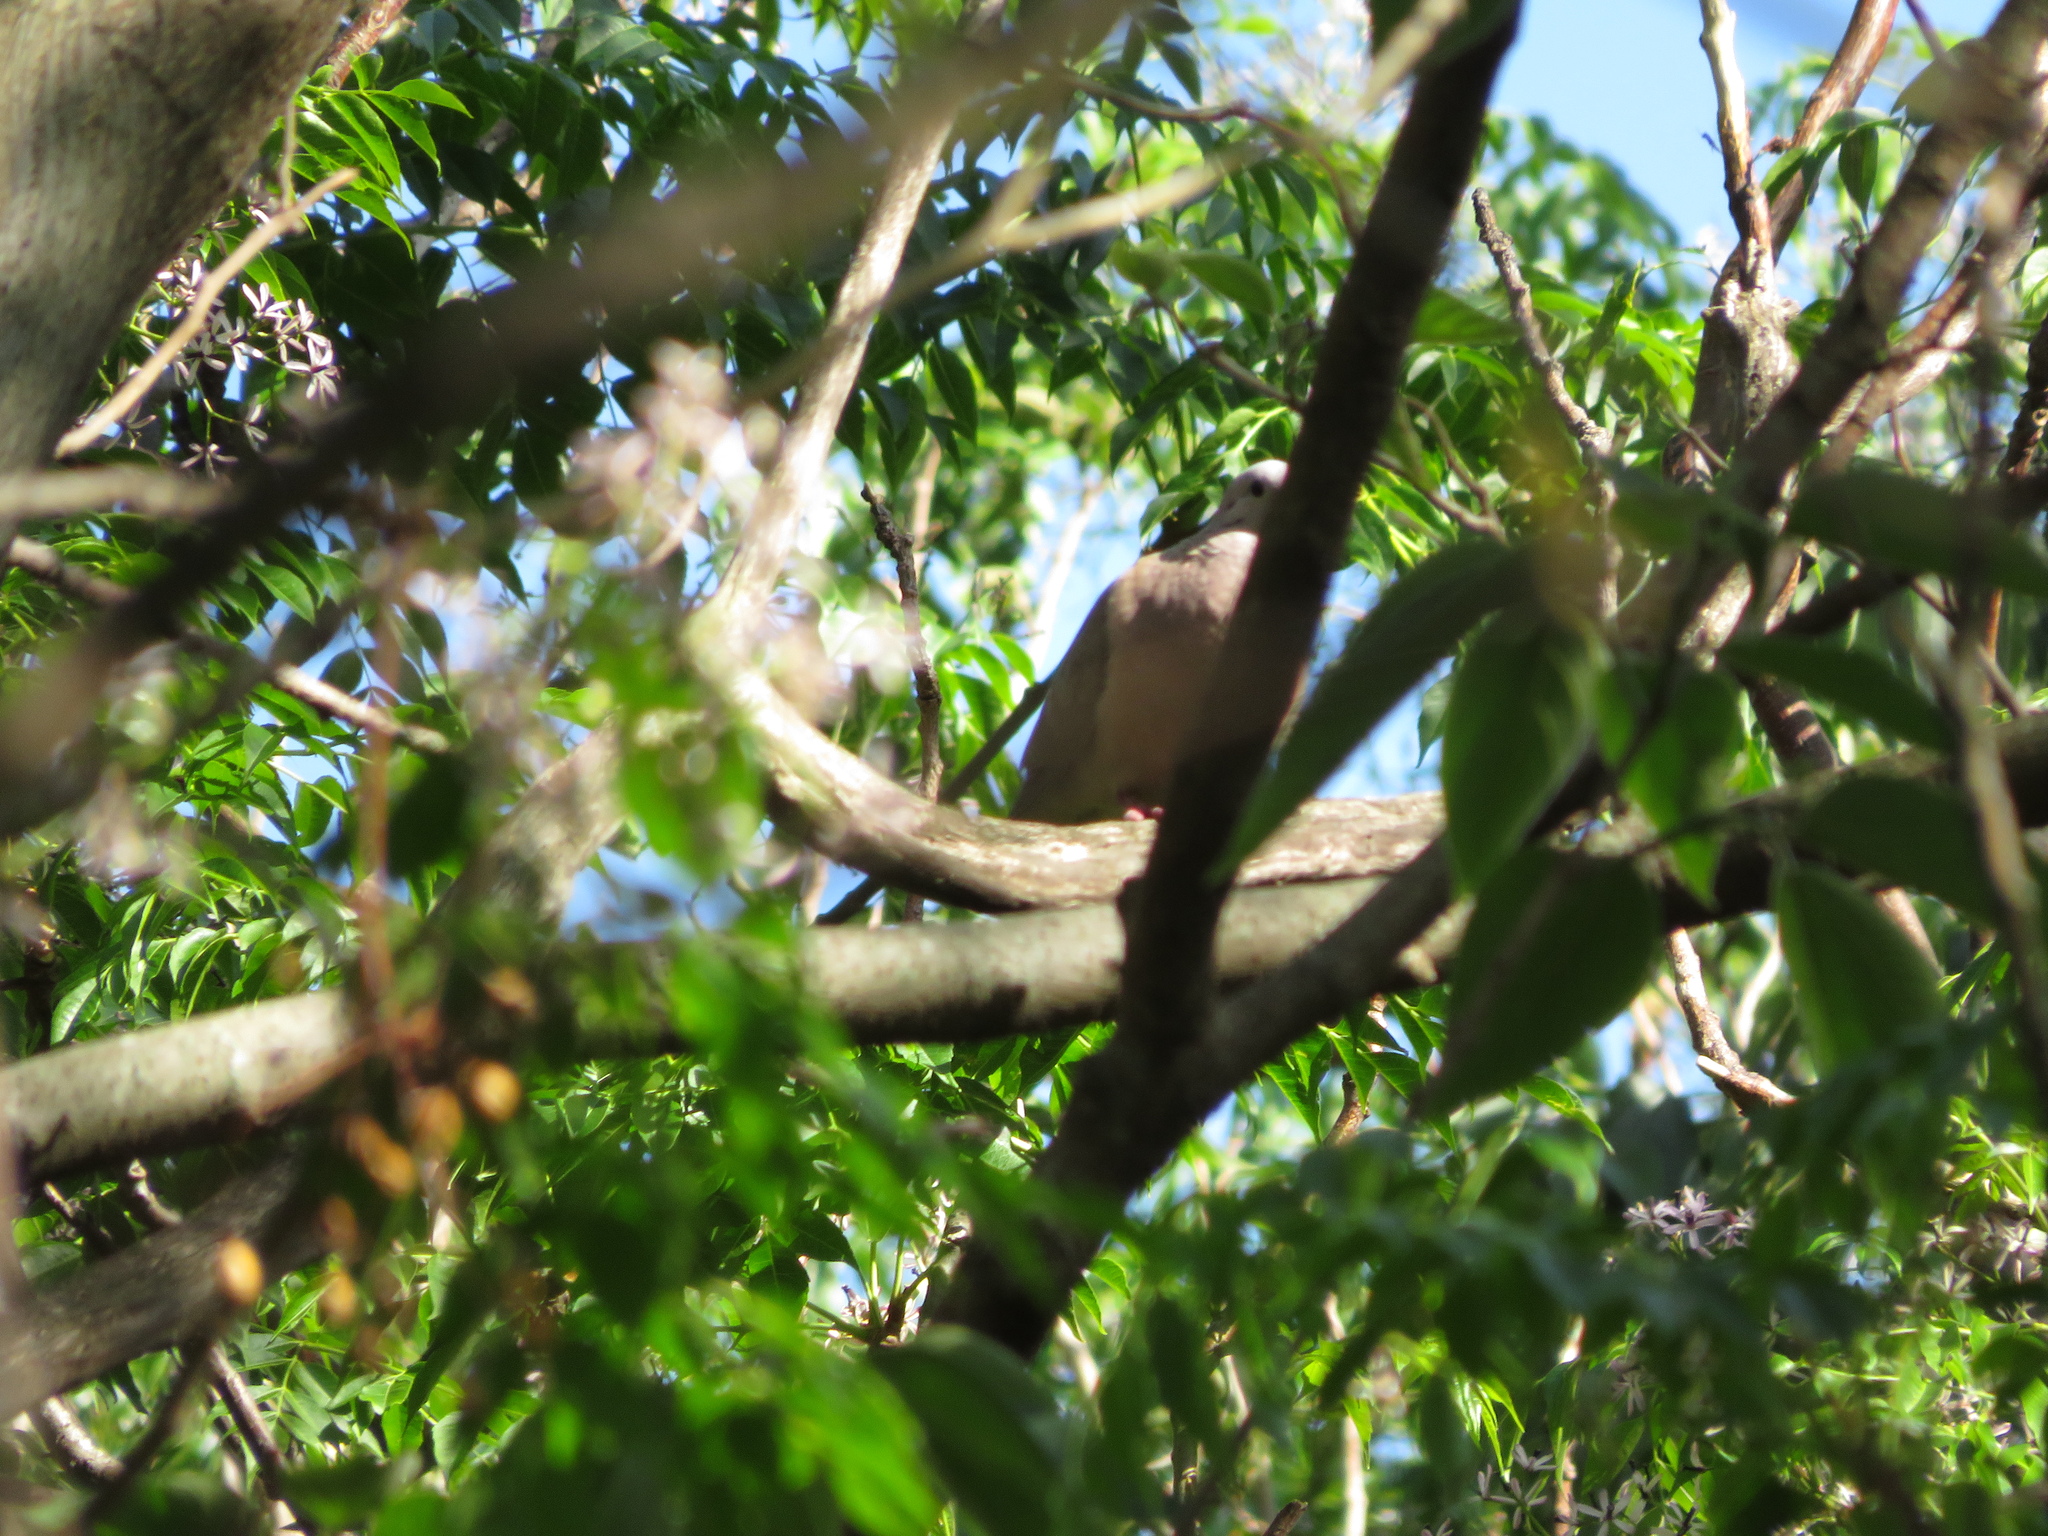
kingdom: Animalia
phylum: Chordata
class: Aves
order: Columbiformes
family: Columbidae
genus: Zenaida
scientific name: Zenaida auriculata
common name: Eared dove
